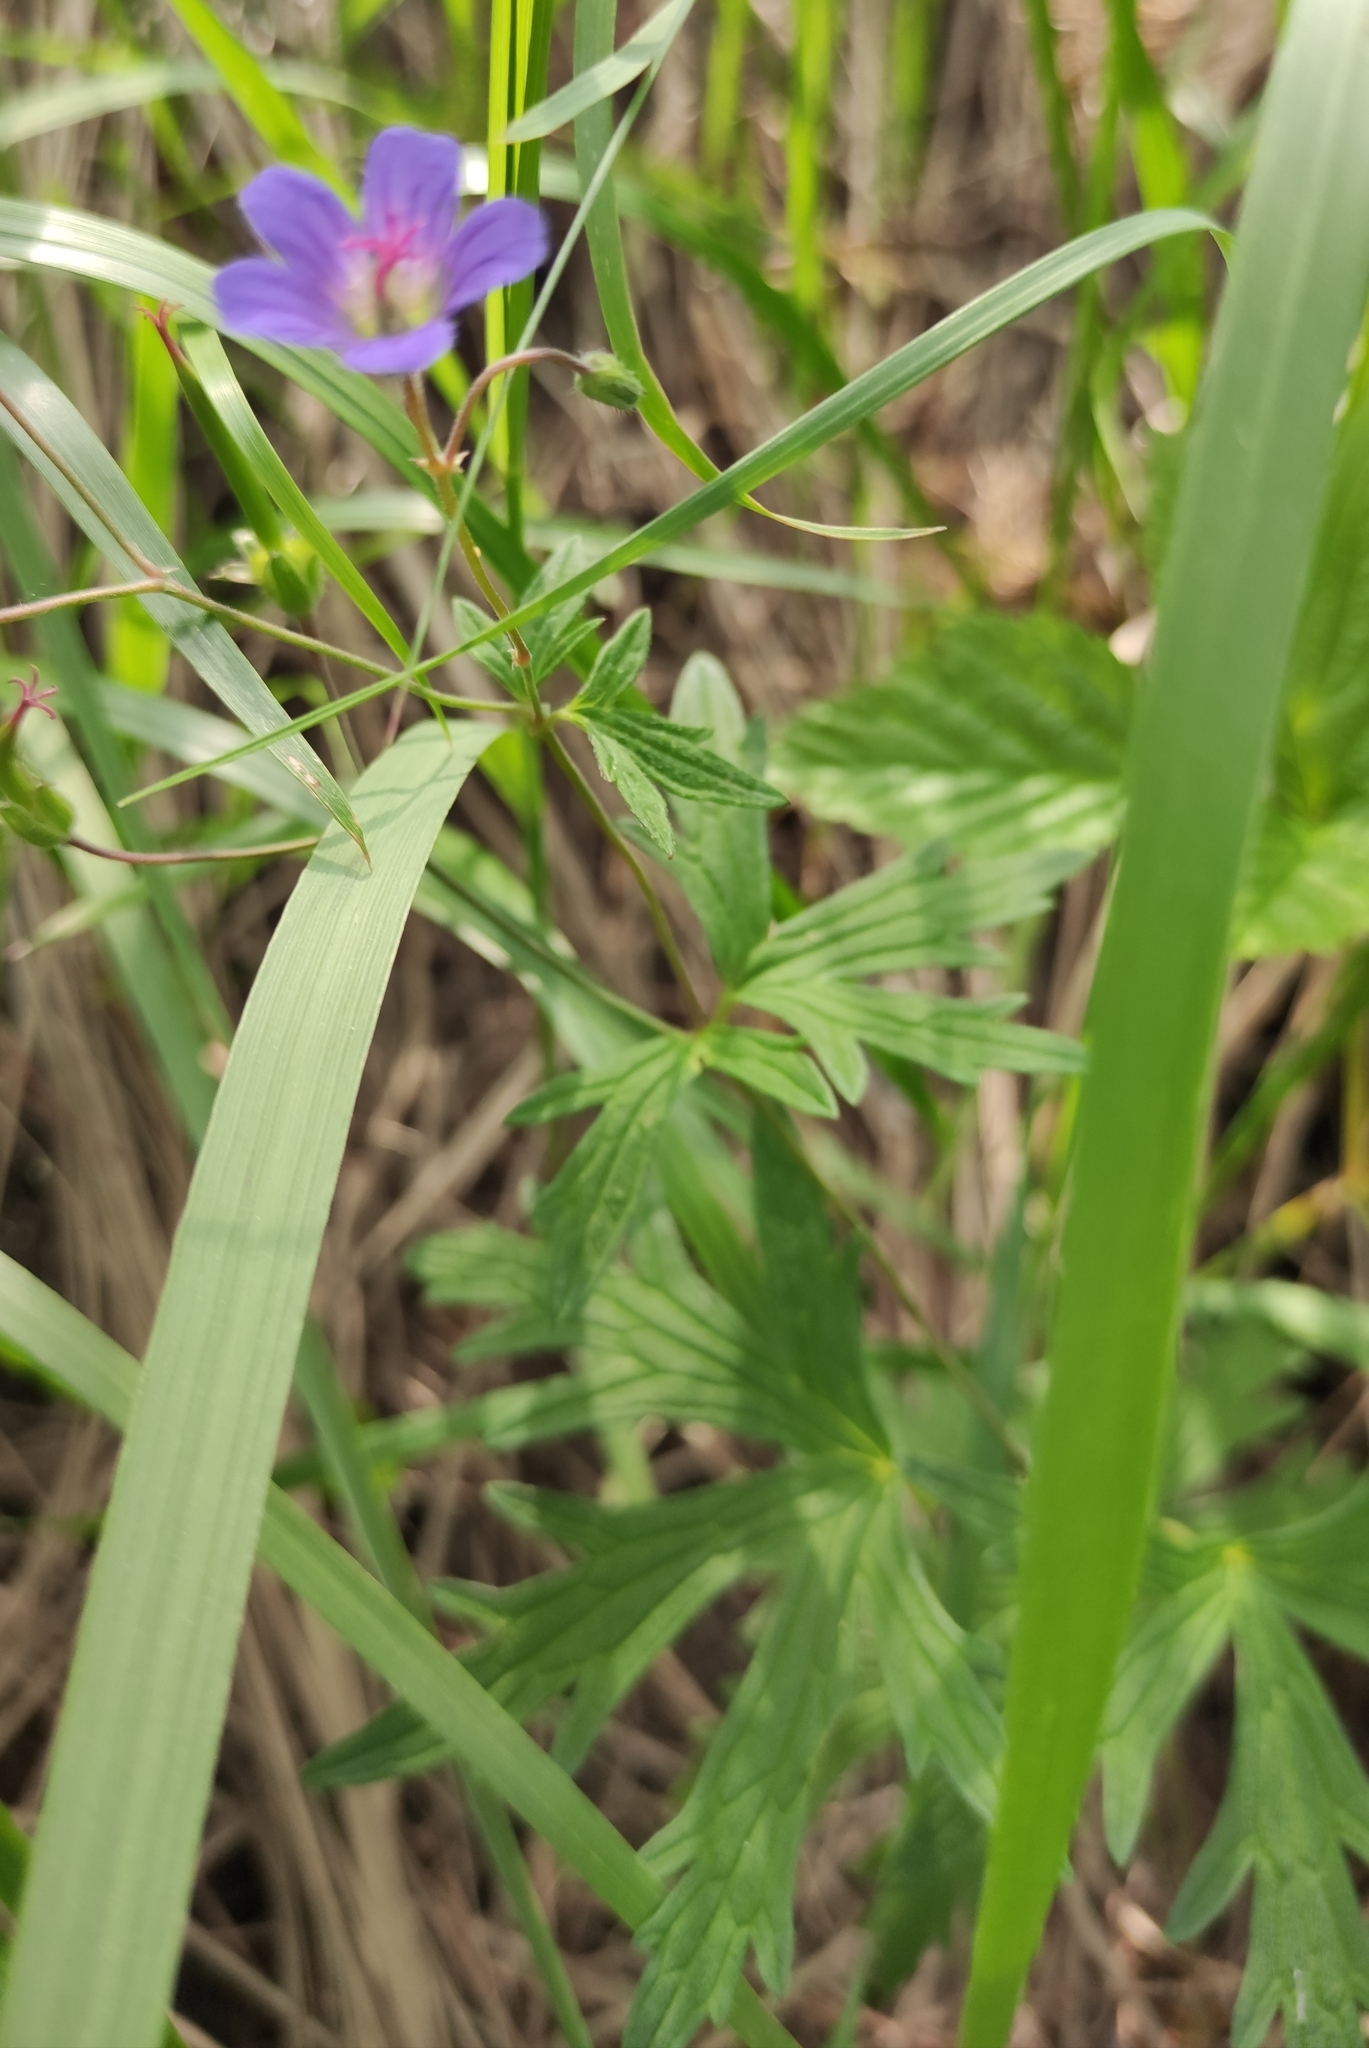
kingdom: Plantae
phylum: Tracheophyta
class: Magnoliopsida
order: Geraniales
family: Geraniaceae
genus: Geranium
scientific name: Geranium pseudosibiricum
